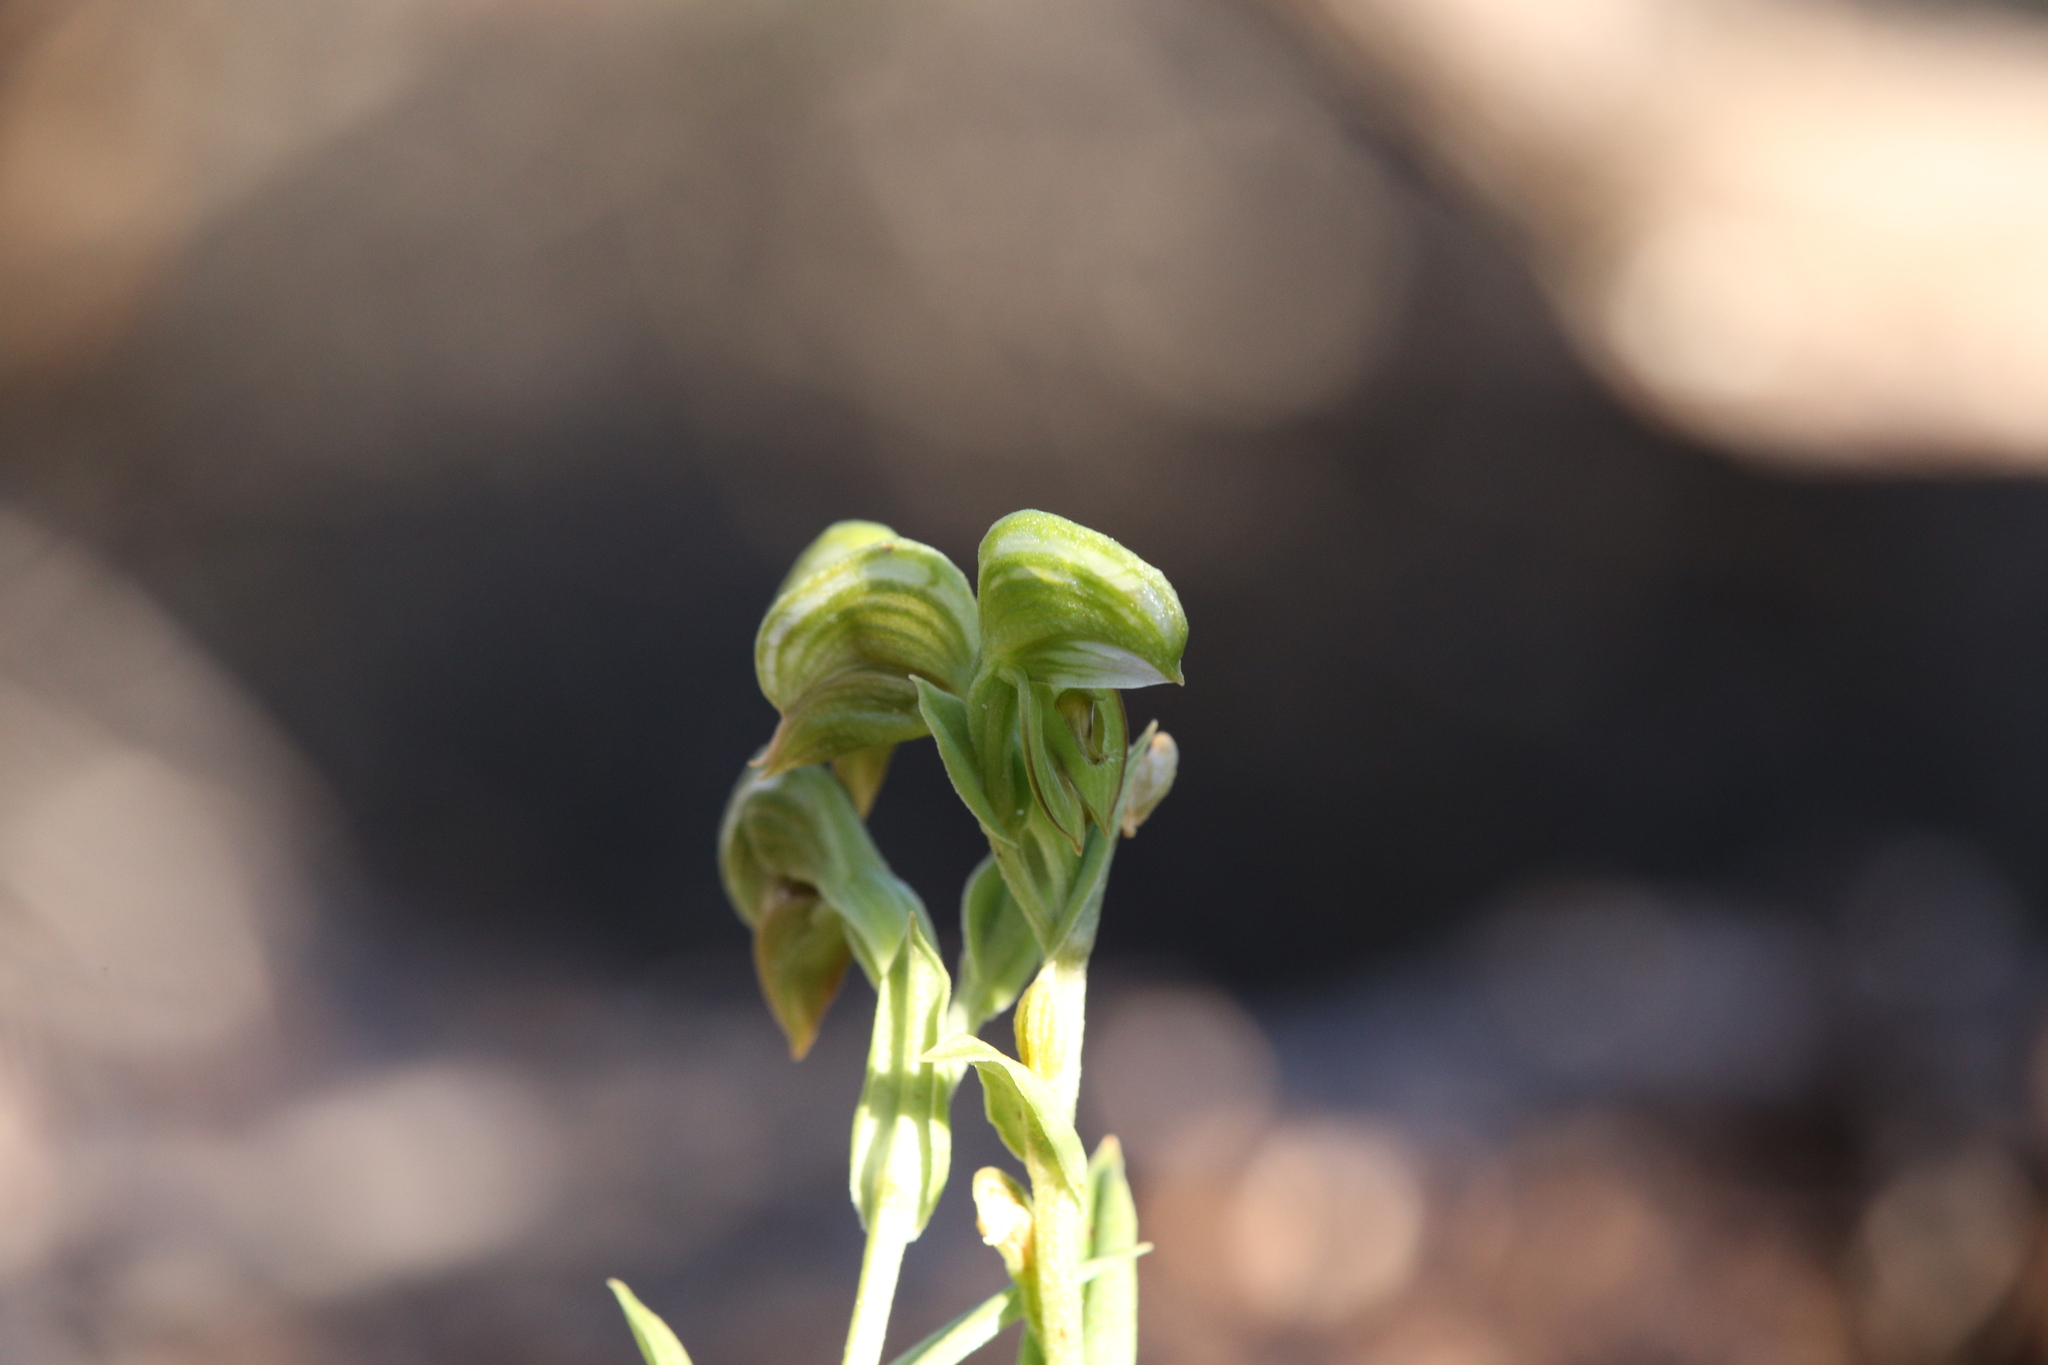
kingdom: Plantae
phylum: Tracheophyta
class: Liliopsida
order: Asparagales
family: Orchidaceae
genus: Pterostylis
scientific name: Pterostylis vittata
